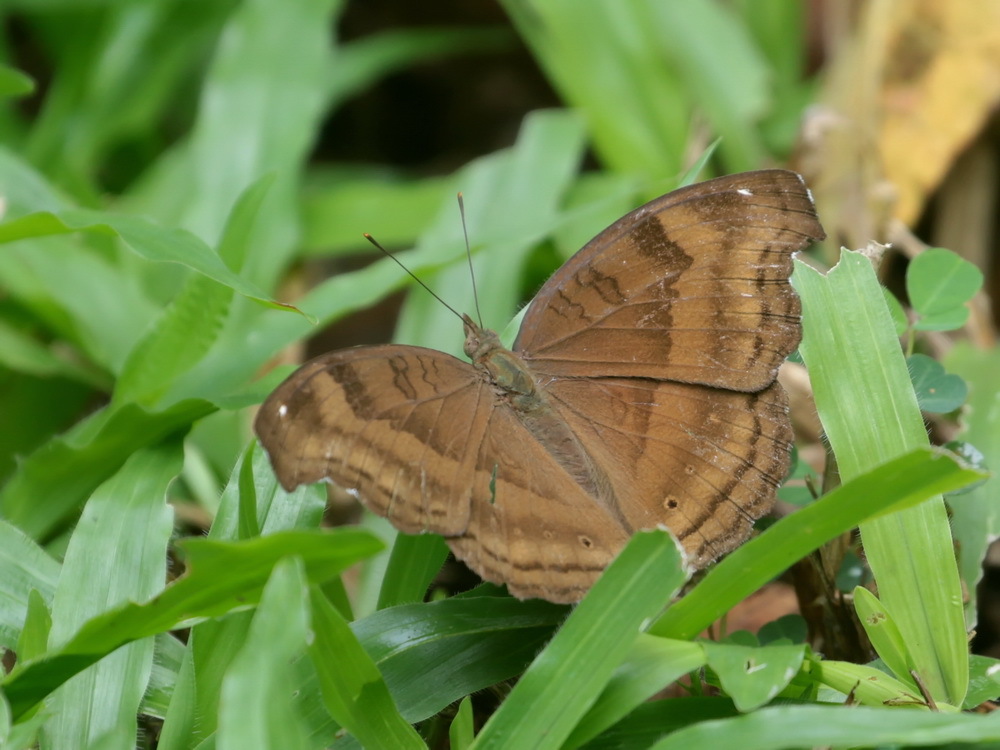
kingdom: Animalia
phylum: Arthropoda
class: Insecta
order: Lepidoptera
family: Nymphalidae
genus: Junonia
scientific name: Junonia iphita
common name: Chocolate pansy
